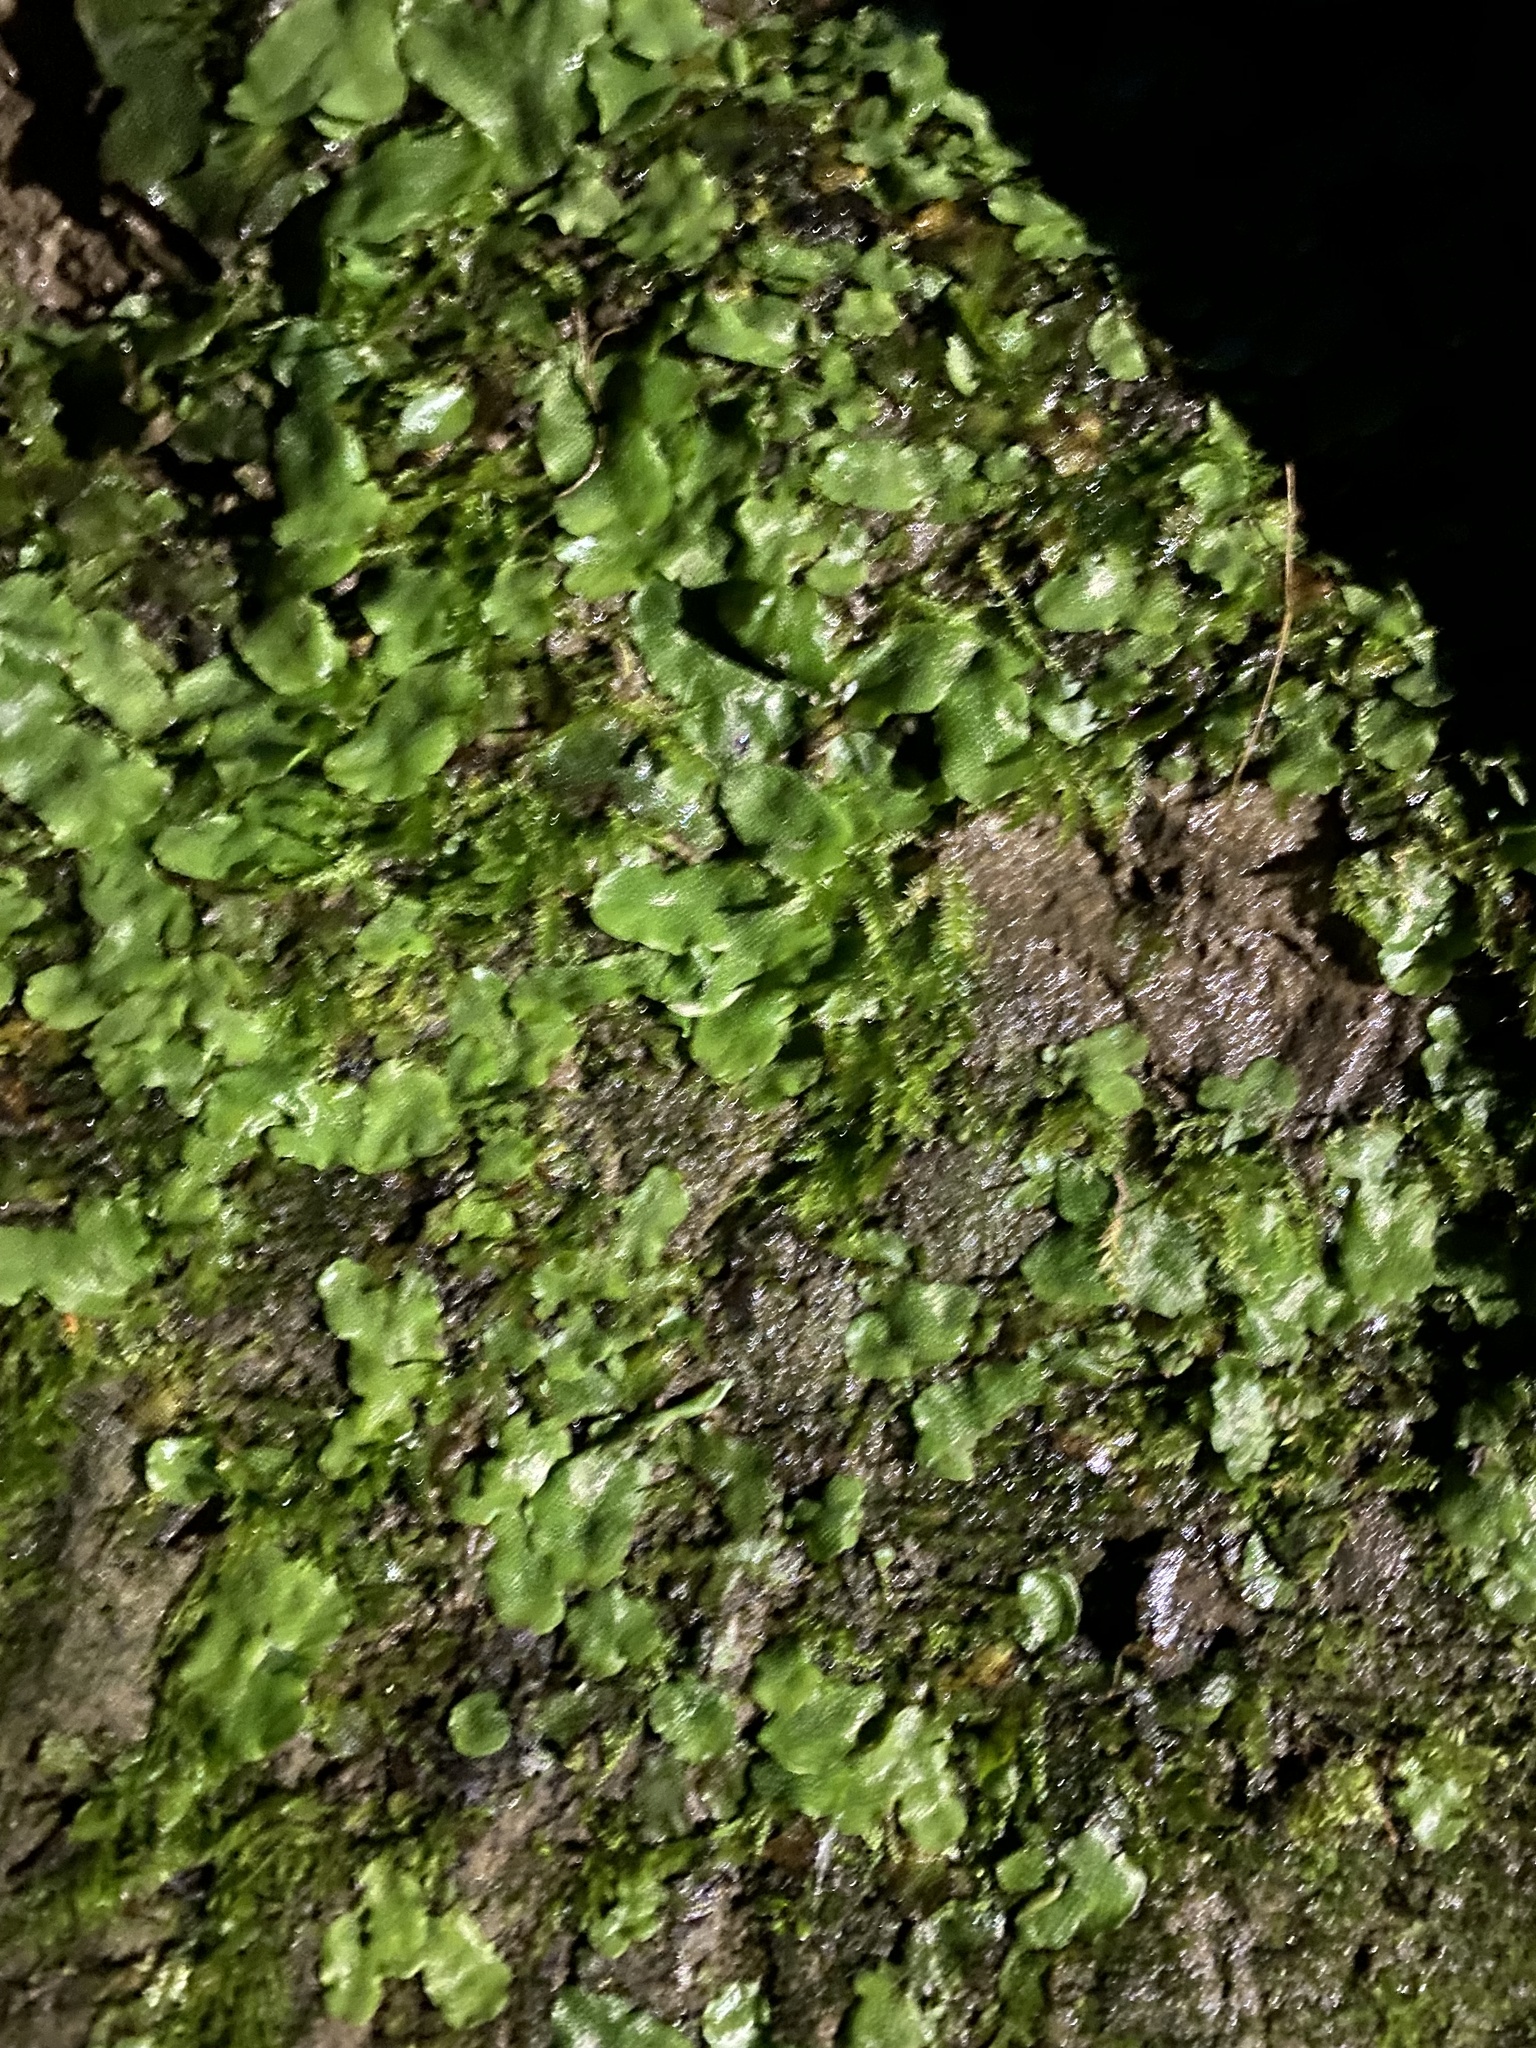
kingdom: Plantae
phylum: Marchantiophyta
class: Marchantiopsida
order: Marchantiales
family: Conocephalaceae
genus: Conocephalum
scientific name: Conocephalum salebrosum
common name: Cat-tongue liverwort
